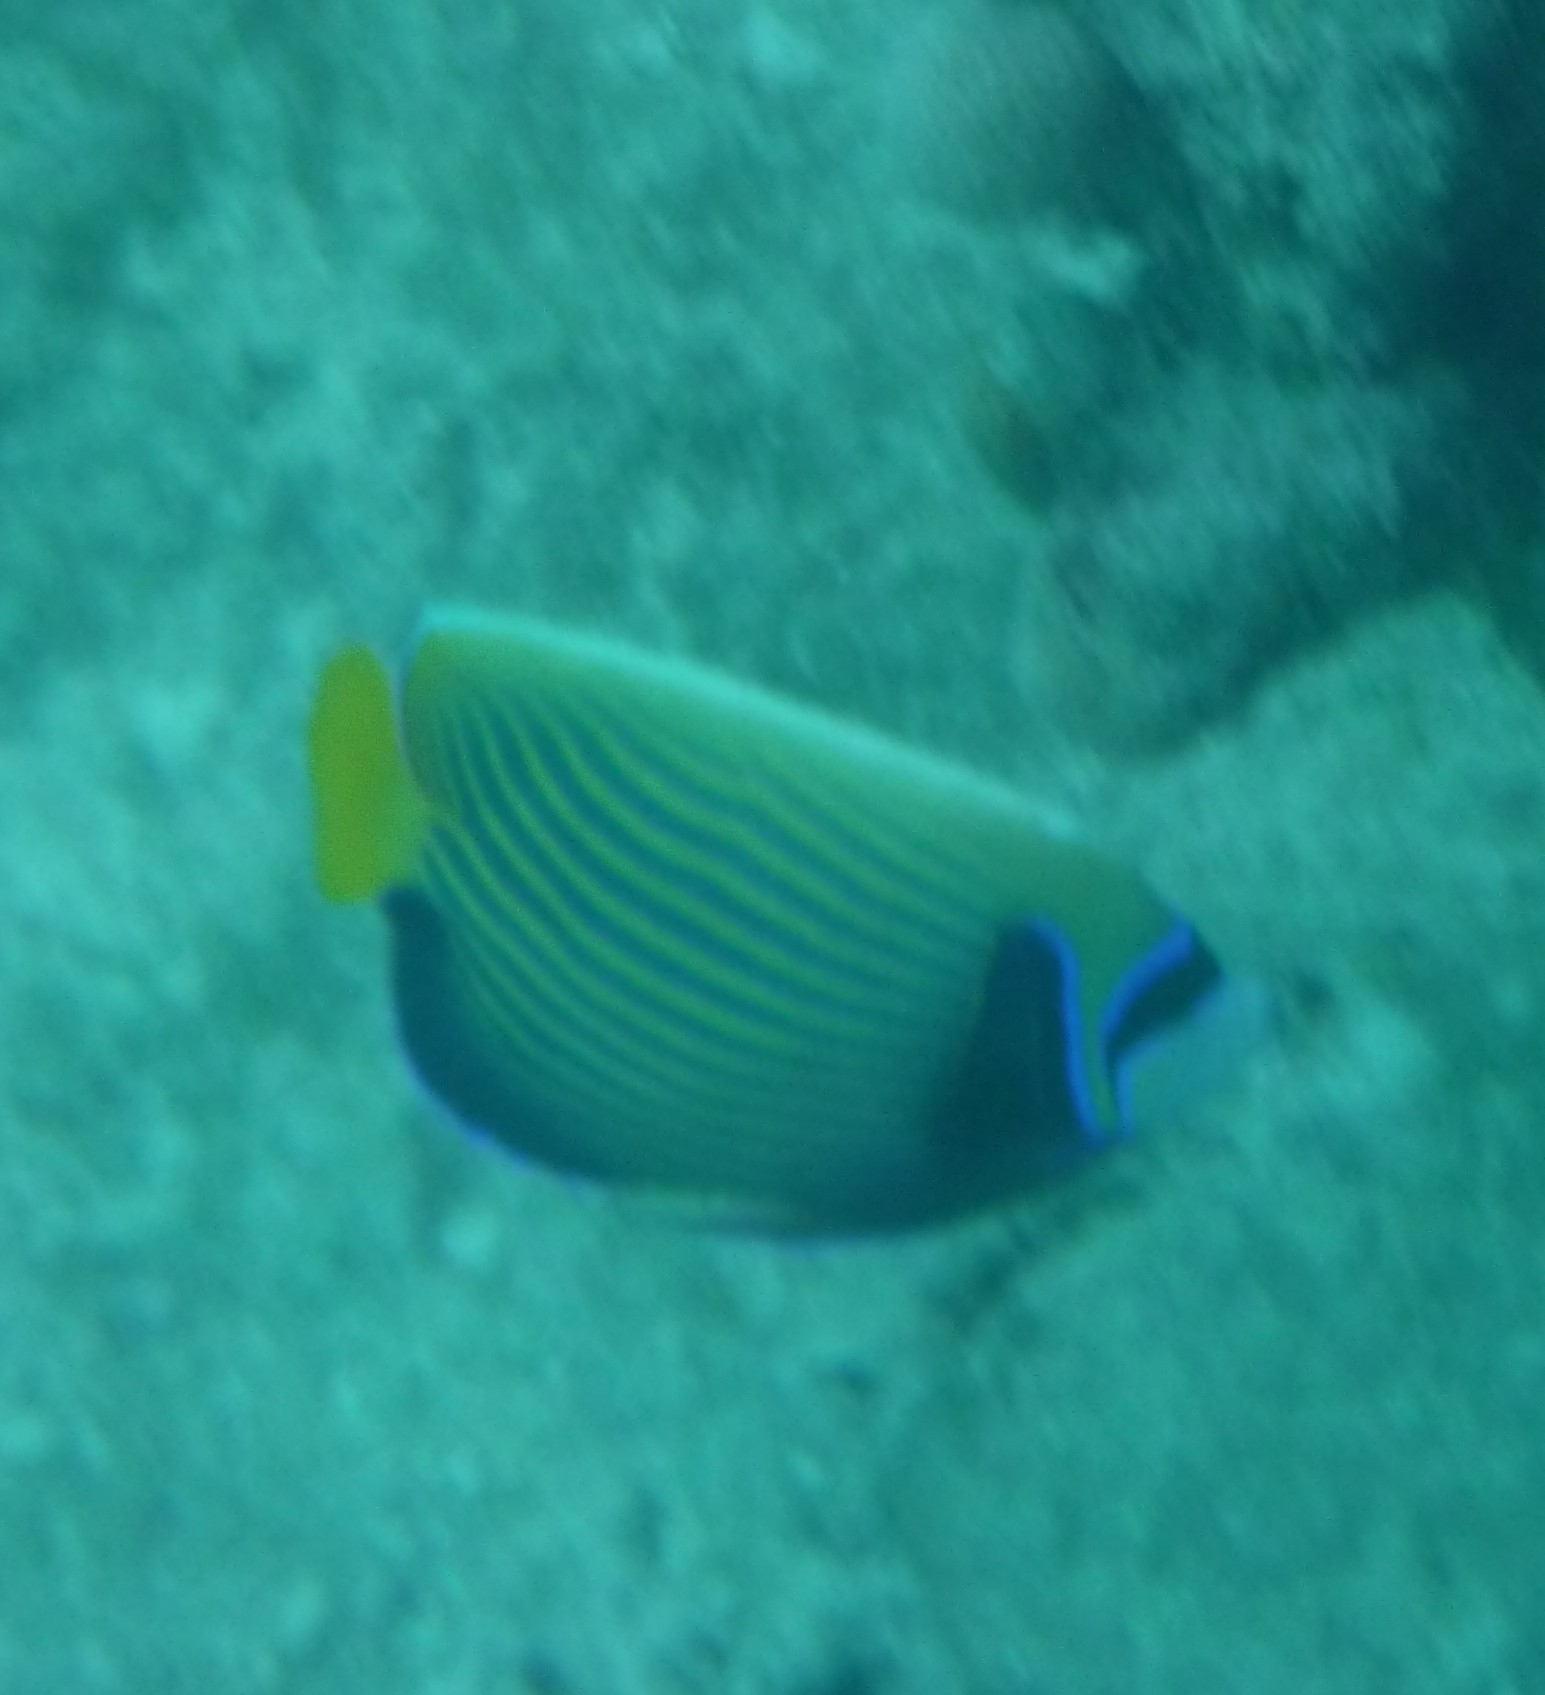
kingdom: Animalia
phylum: Chordata
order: Perciformes
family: Pomacanthidae
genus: Pomacanthus
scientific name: Pomacanthus imperator
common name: Emperor angelfish
